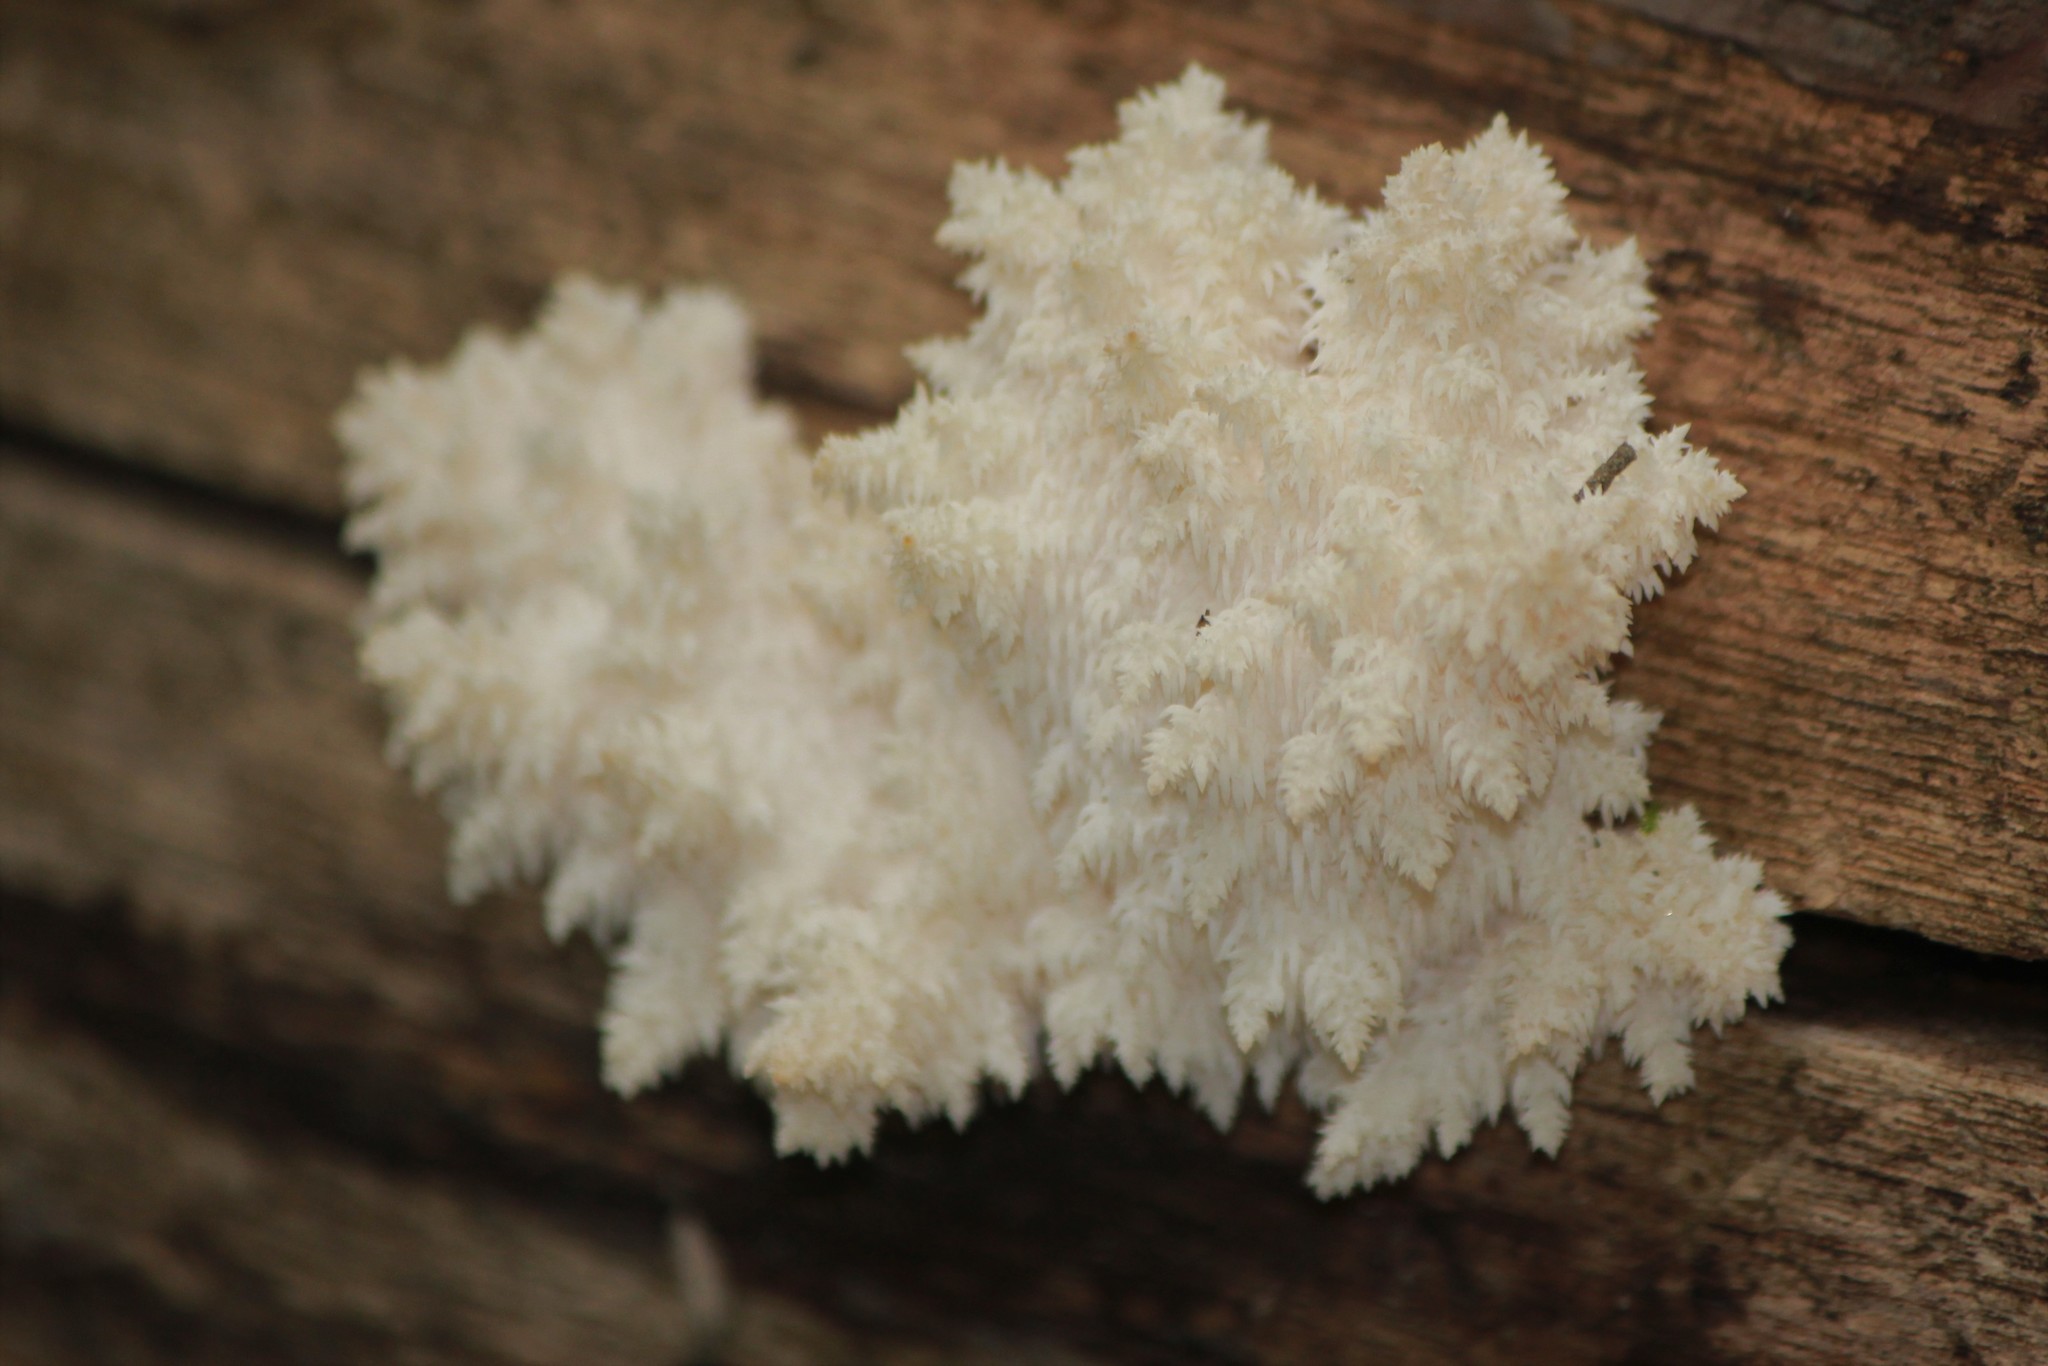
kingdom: Fungi
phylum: Basidiomycota
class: Agaricomycetes
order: Russulales
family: Hericiaceae
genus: Hericium
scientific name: Hericium coralloides
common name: Coral tooth
